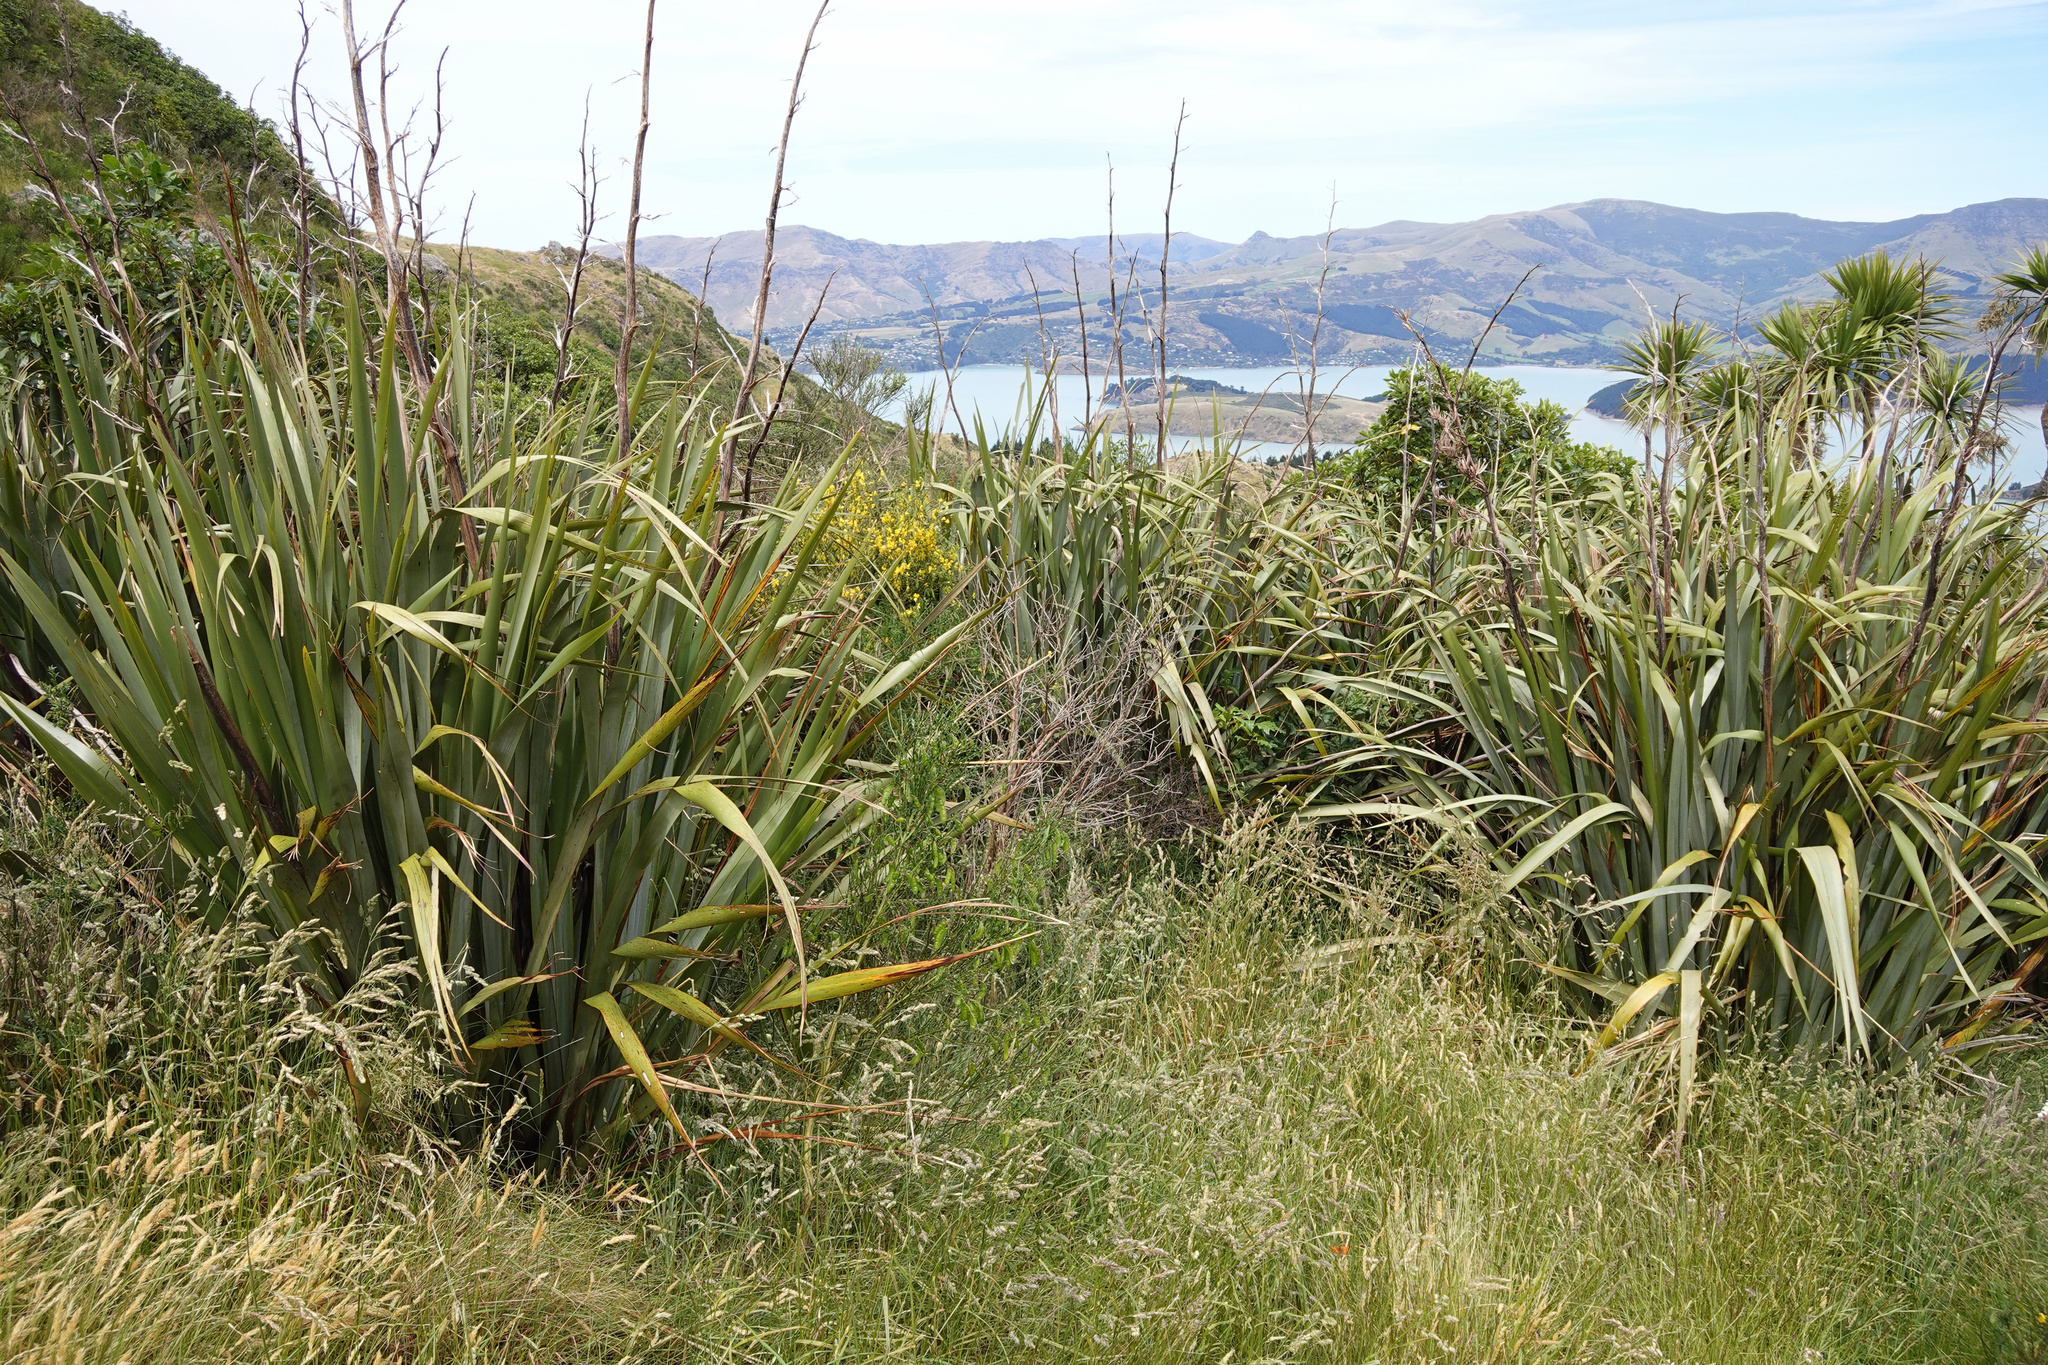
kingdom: Plantae
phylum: Tracheophyta
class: Liliopsida
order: Asparagales
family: Asphodelaceae
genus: Phormium
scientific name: Phormium tenax
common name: New zealand flax
